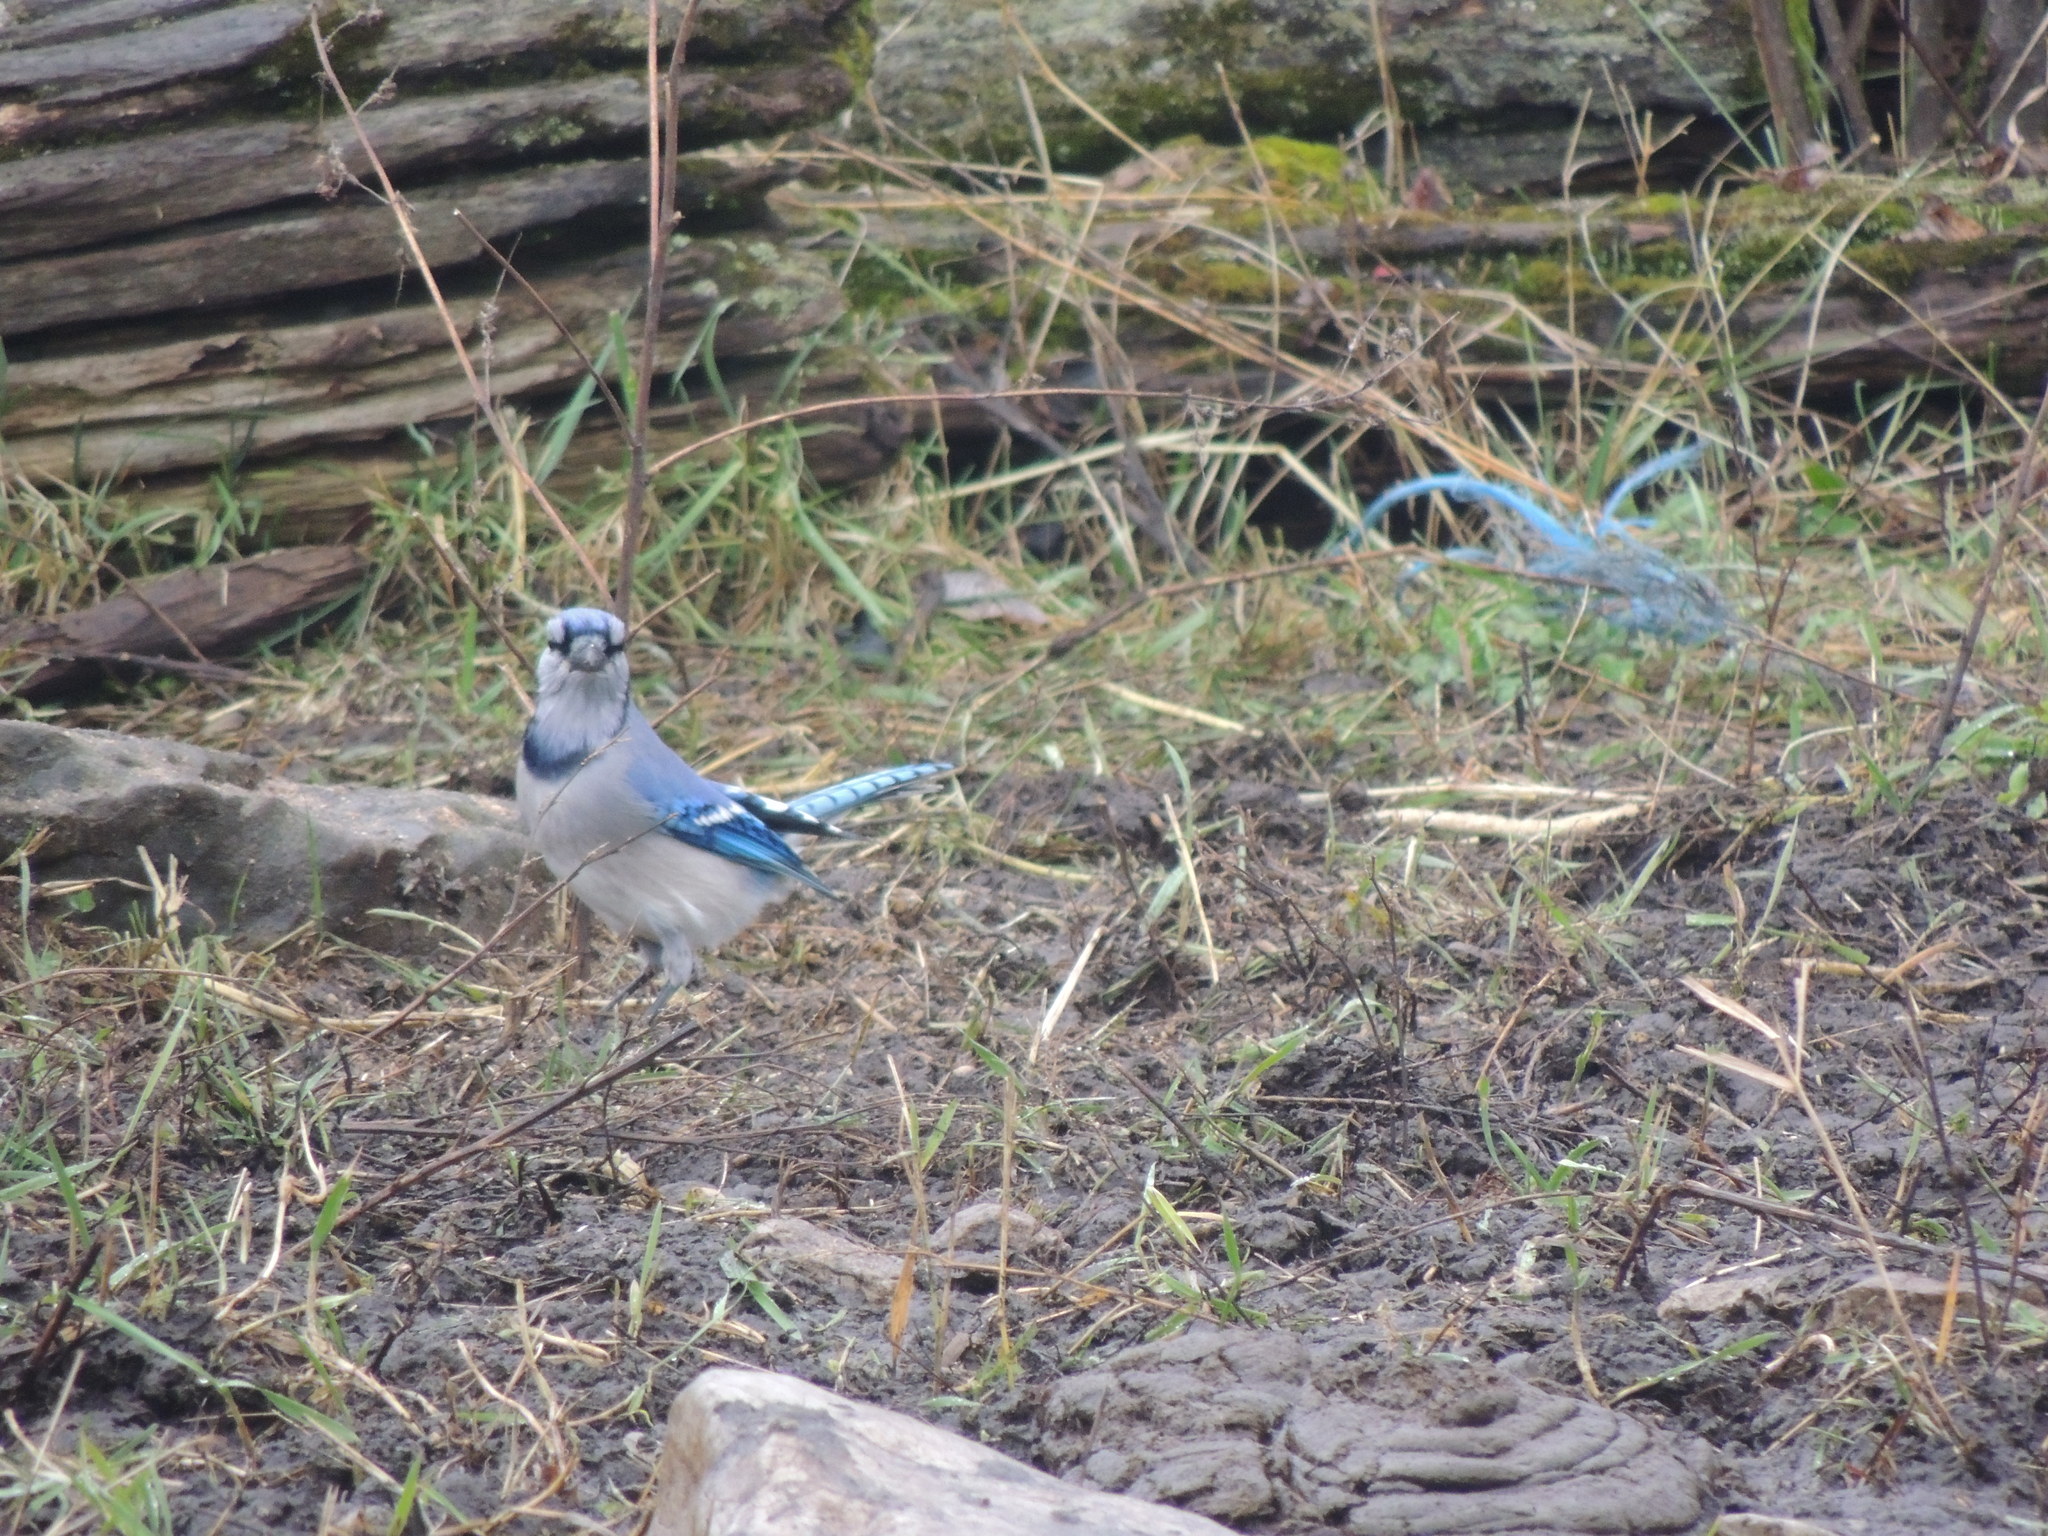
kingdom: Animalia
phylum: Chordata
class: Aves
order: Passeriformes
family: Corvidae
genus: Cyanocitta
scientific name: Cyanocitta cristata
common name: Blue jay
